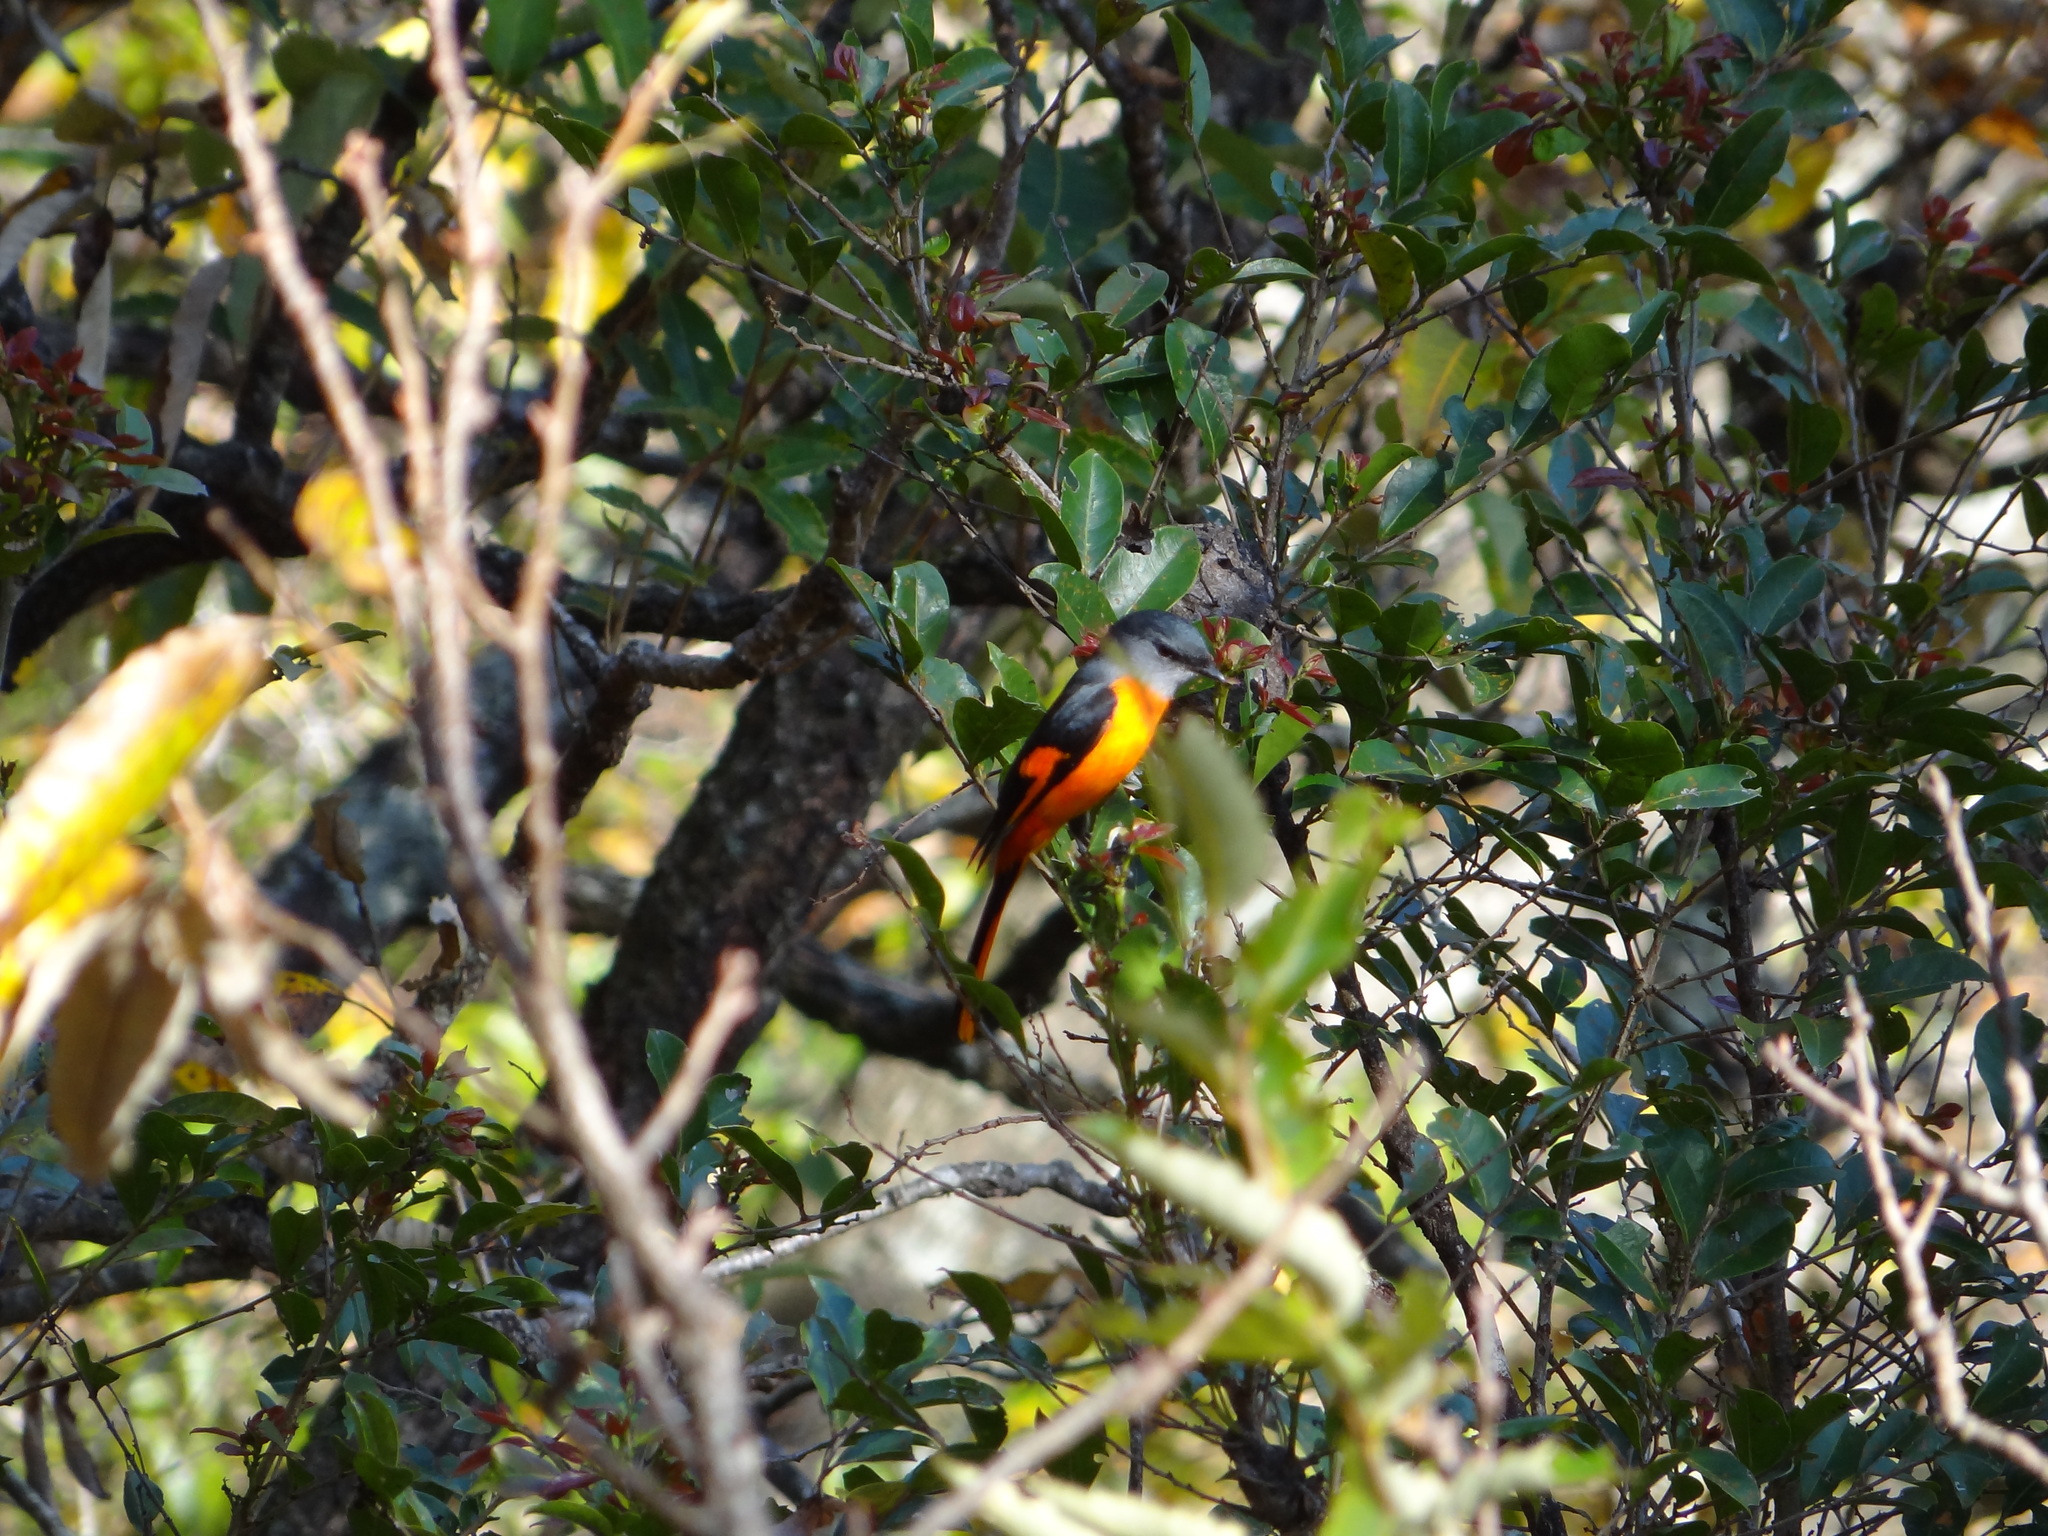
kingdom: Animalia
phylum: Chordata
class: Aves
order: Passeriformes
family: Campephagidae
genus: Pericrocotus
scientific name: Pericrocotus solaris
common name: Grey-chinned minivet
